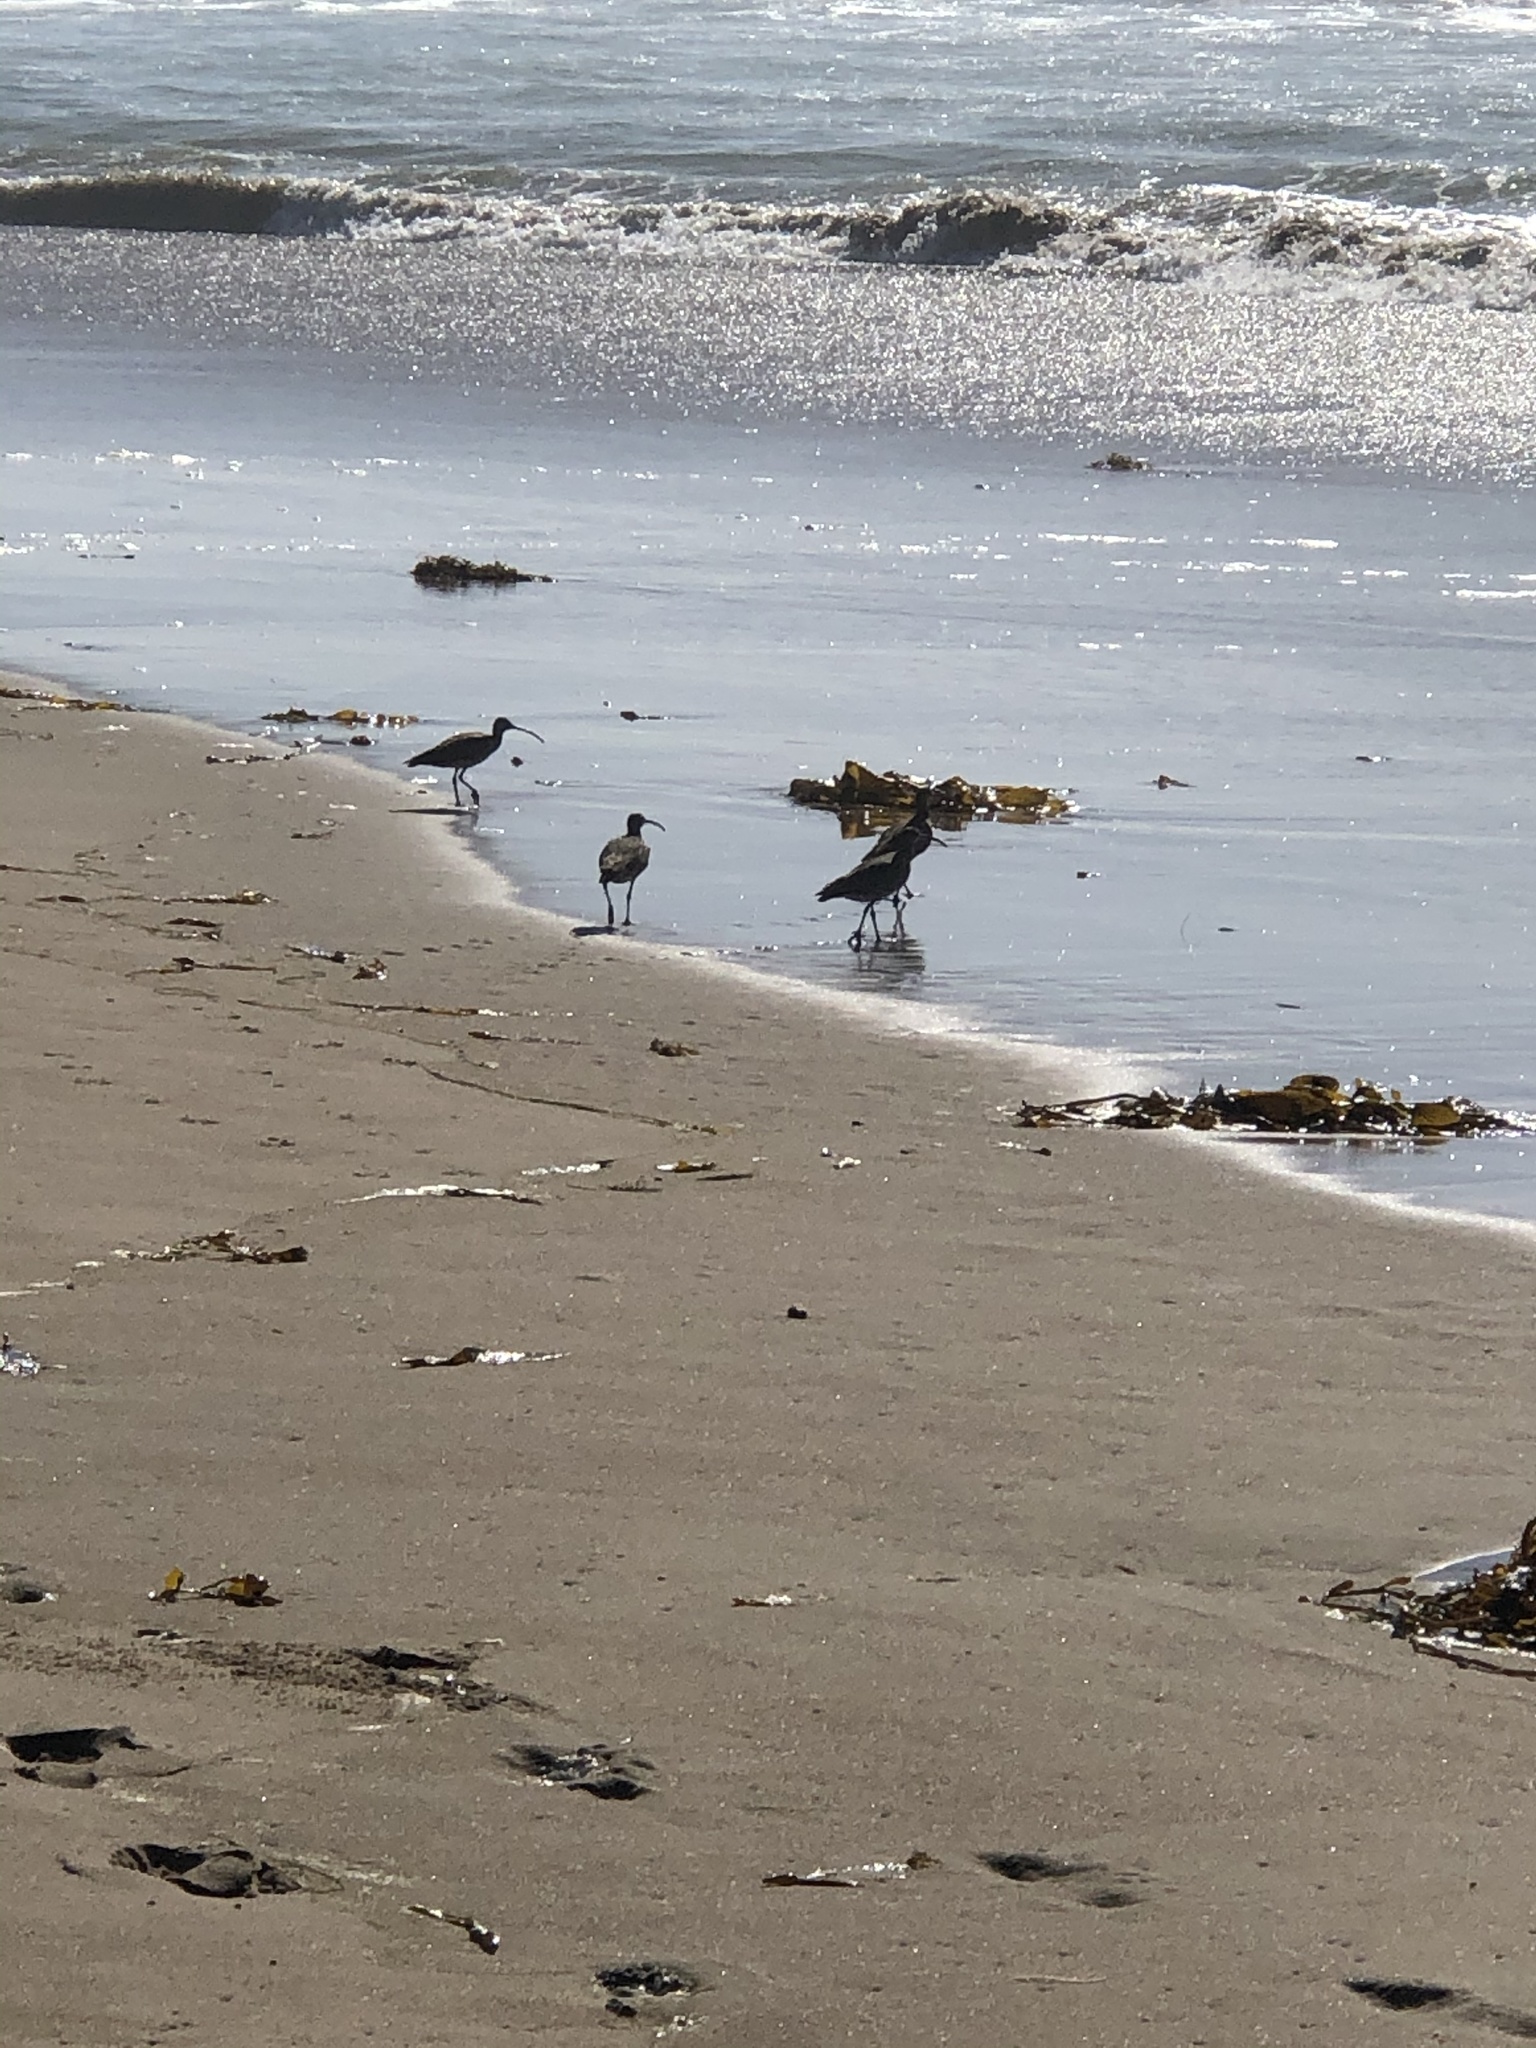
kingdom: Animalia
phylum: Chordata
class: Aves
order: Charadriiformes
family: Scolopacidae
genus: Numenius
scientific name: Numenius phaeopus
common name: Whimbrel
